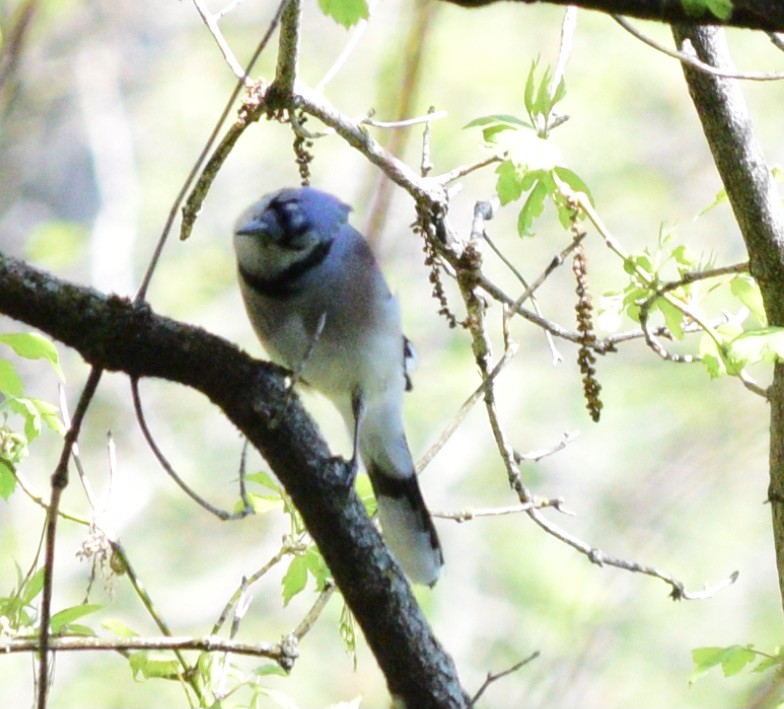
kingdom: Animalia
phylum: Chordata
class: Aves
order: Passeriformes
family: Corvidae
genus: Cyanocitta
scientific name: Cyanocitta cristata
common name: Blue jay
